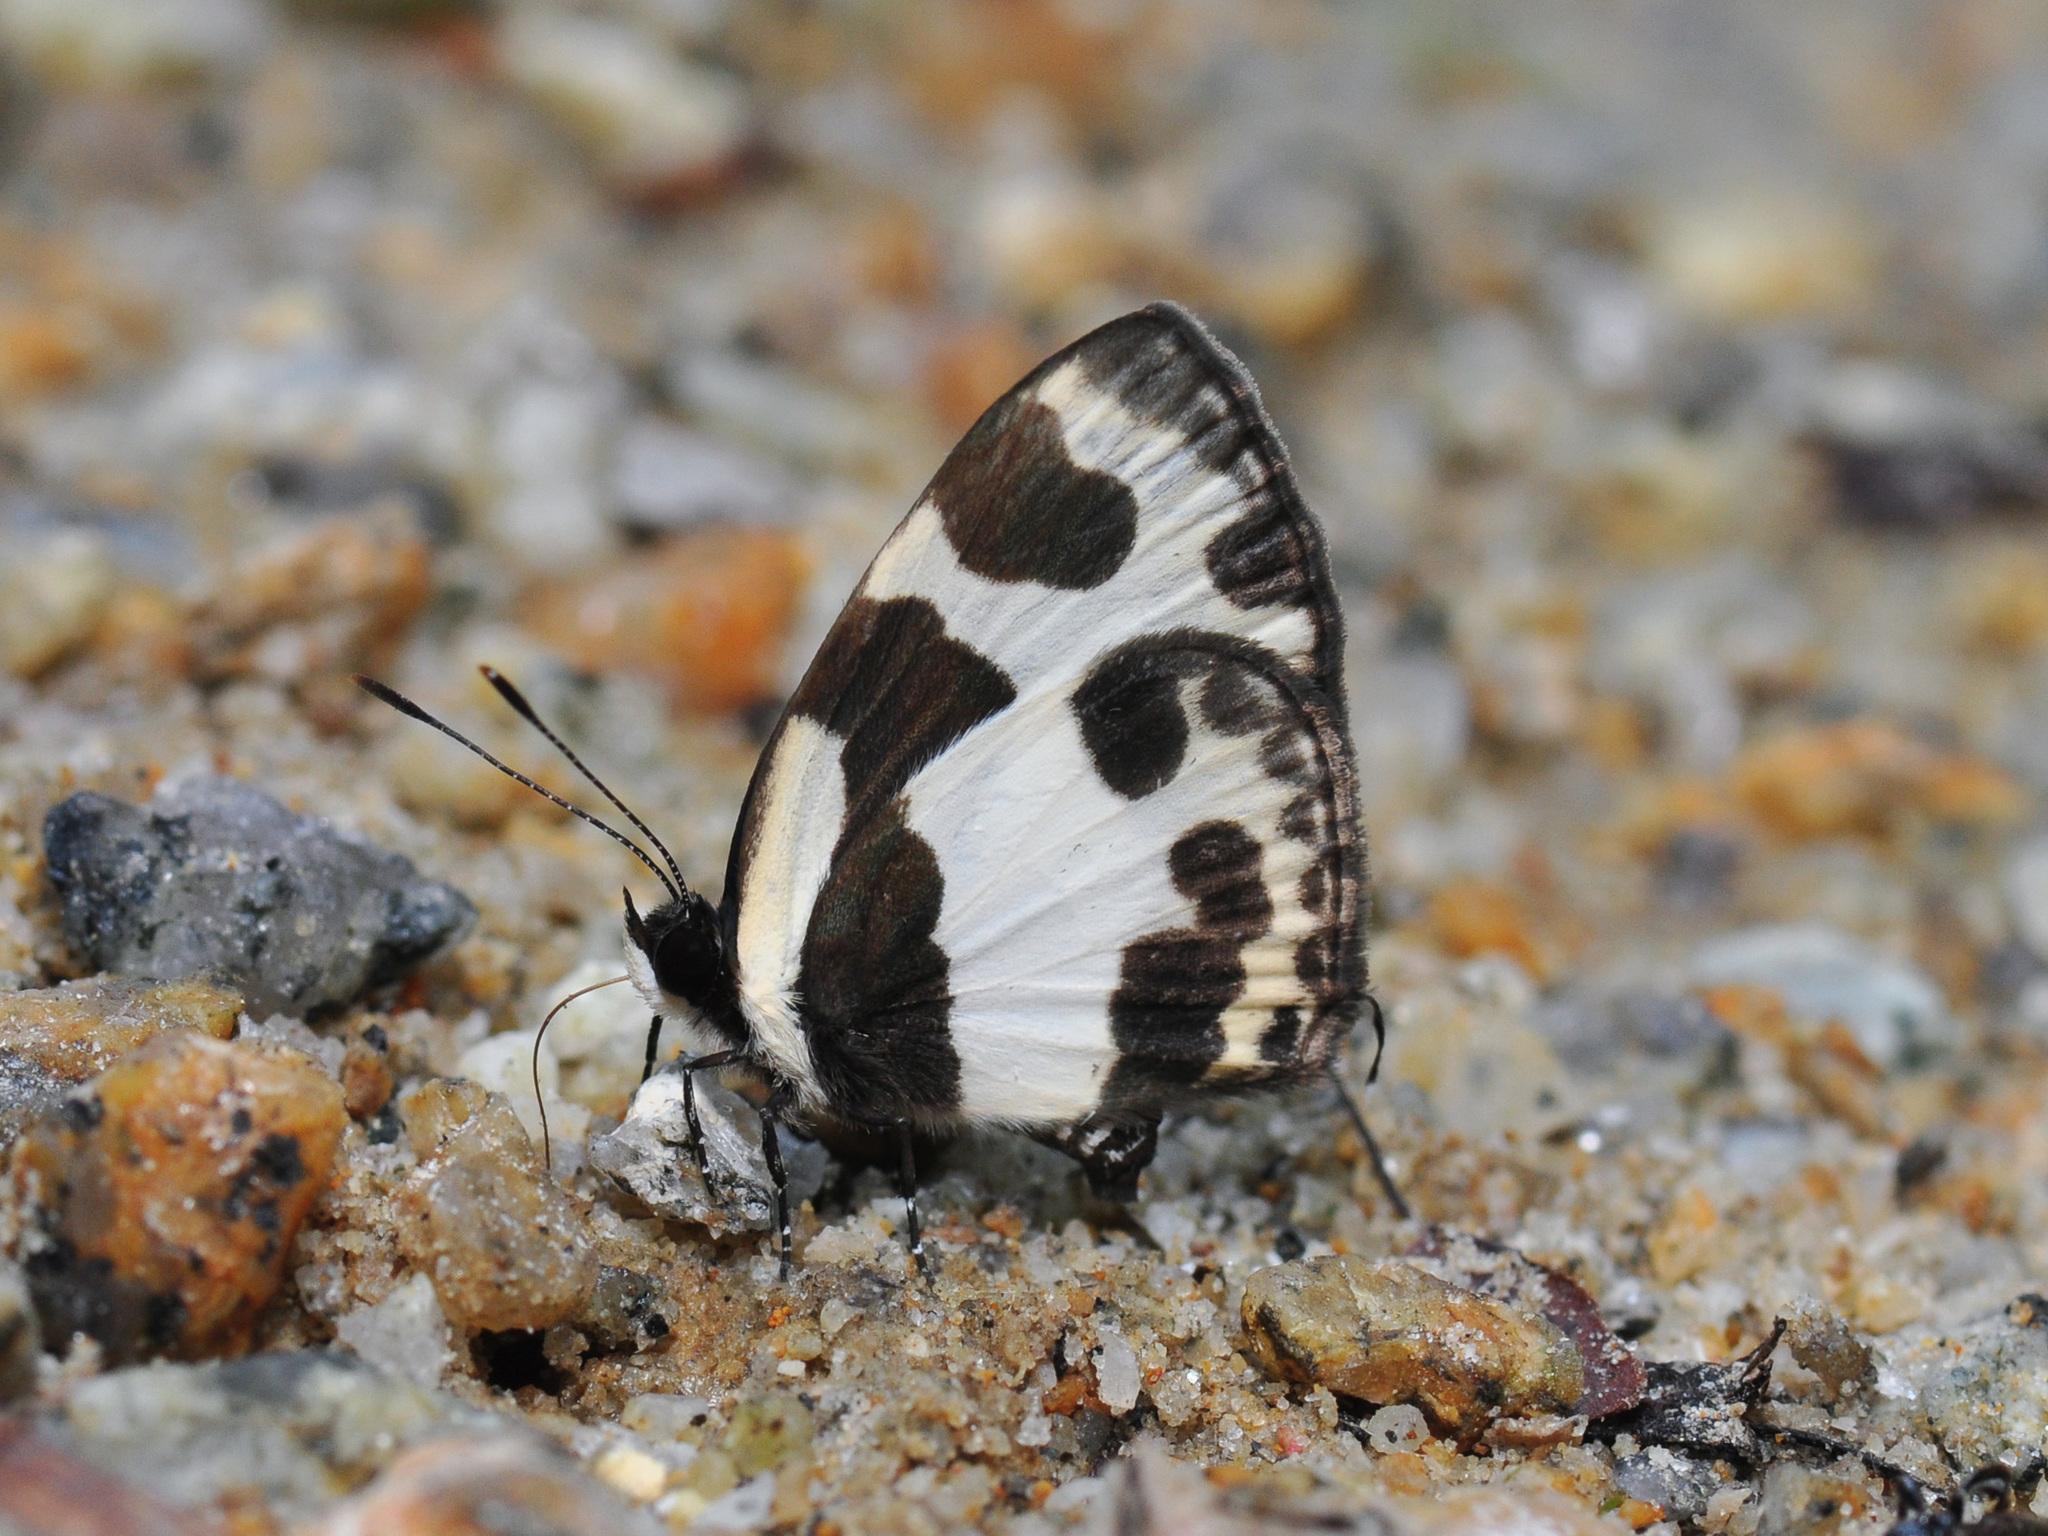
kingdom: Animalia
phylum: Arthropoda
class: Insecta
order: Lepidoptera
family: Lycaenidae
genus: Caleta
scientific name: Caleta elna
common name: Elbowed pierrot
